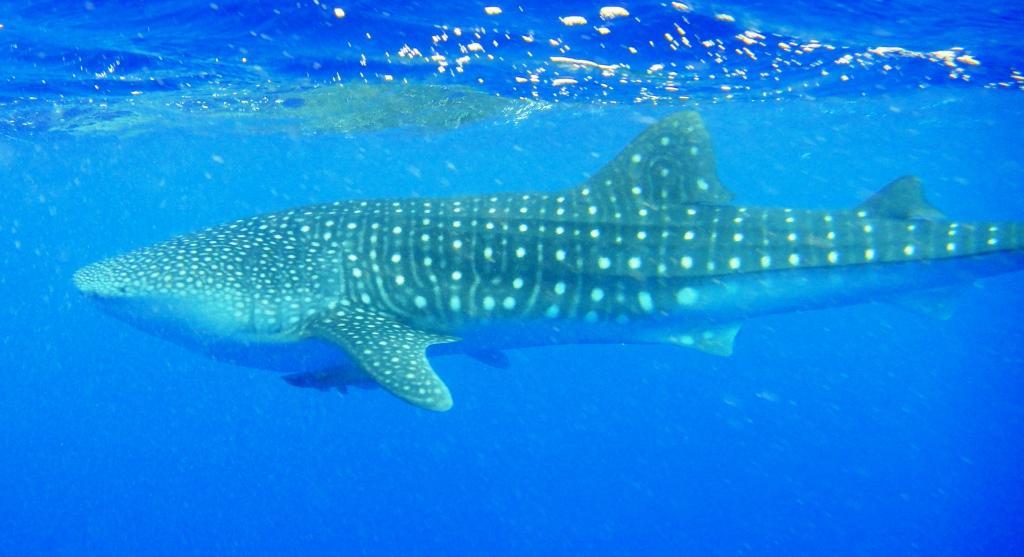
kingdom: Animalia
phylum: Chordata
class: Elasmobranchii
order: Orectolobiformes
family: Rhincodontidae
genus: Rhincodon
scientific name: Rhincodon typus
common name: Whale shark
